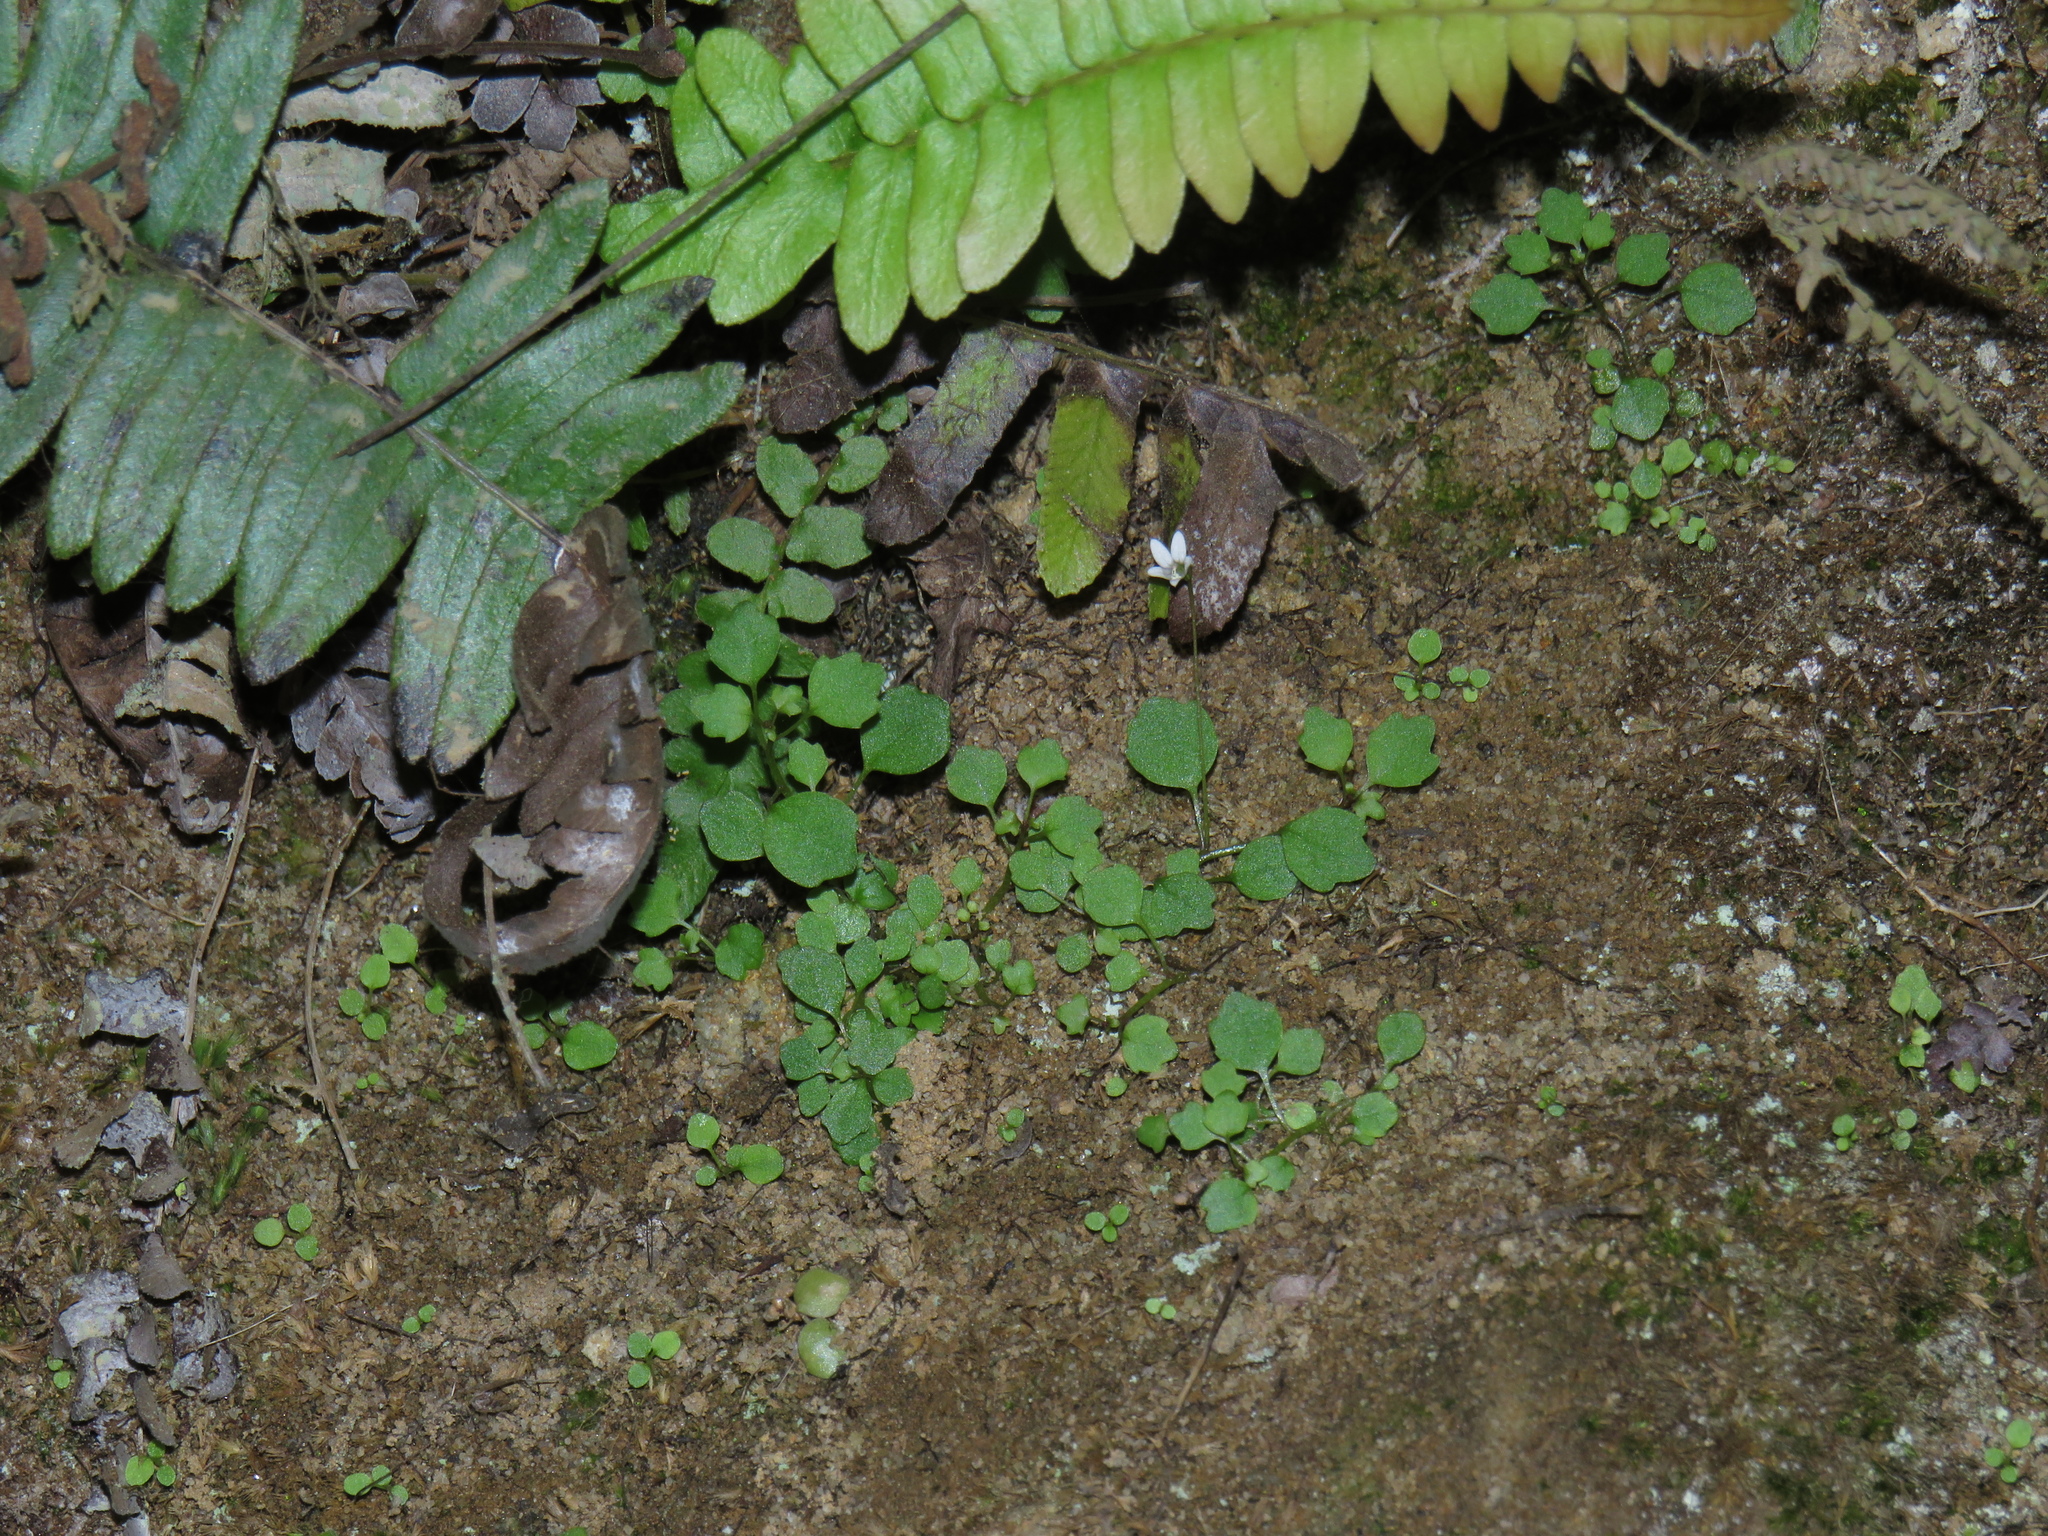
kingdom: Plantae
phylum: Tracheophyta
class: Magnoliopsida
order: Asterales
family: Campanulaceae
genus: Wimmerella
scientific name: Wimmerella pygmaea
